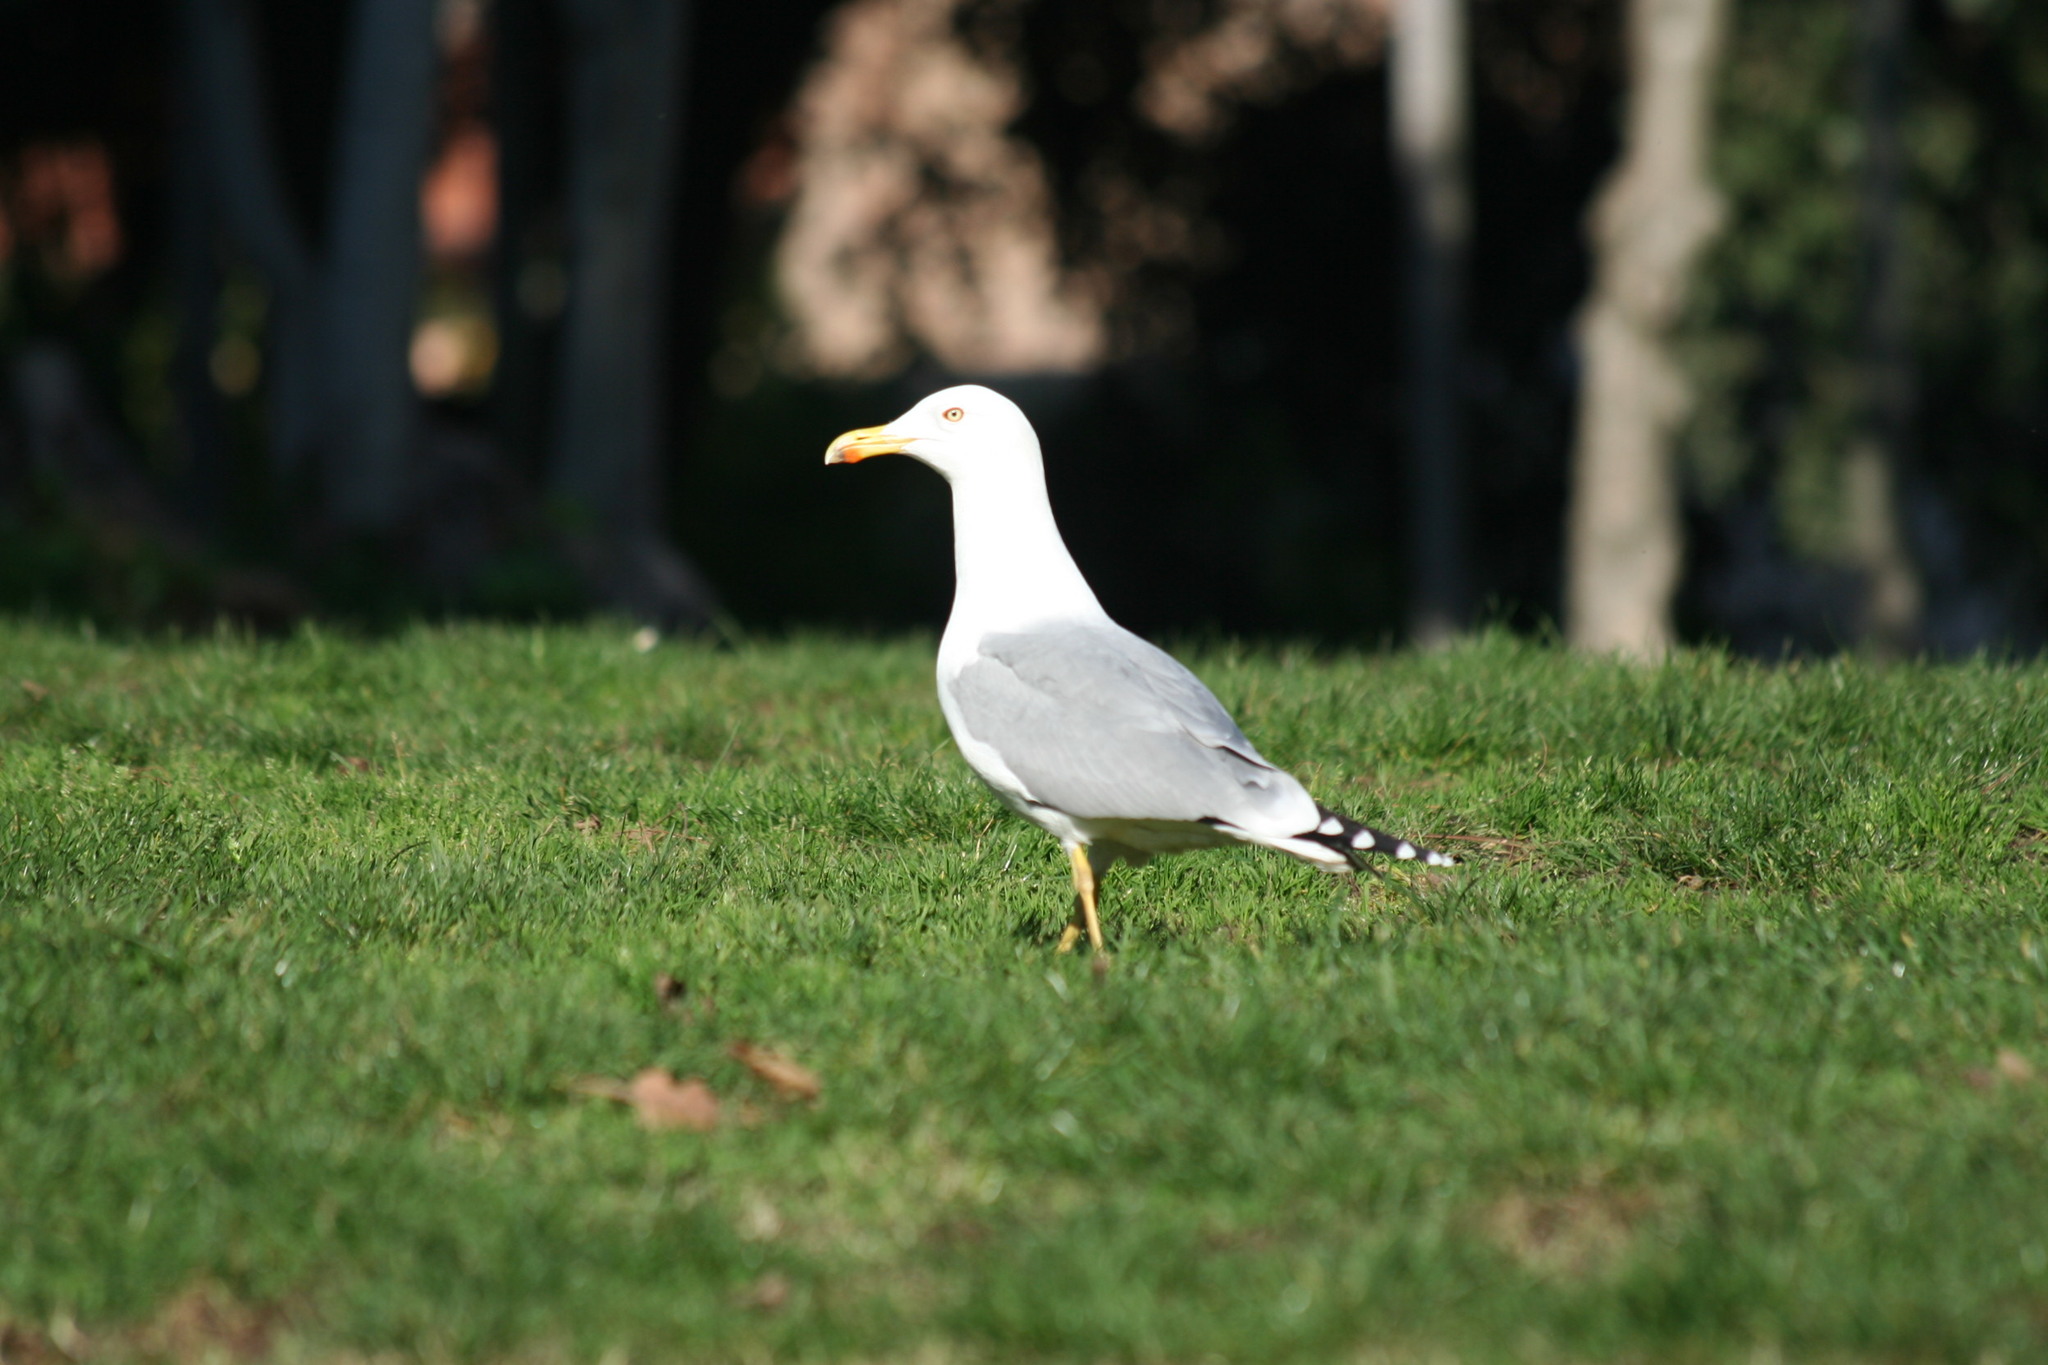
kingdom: Animalia
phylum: Chordata
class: Aves
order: Charadriiformes
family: Laridae
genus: Larus
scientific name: Larus michahellis
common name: Yellow-legged gull
